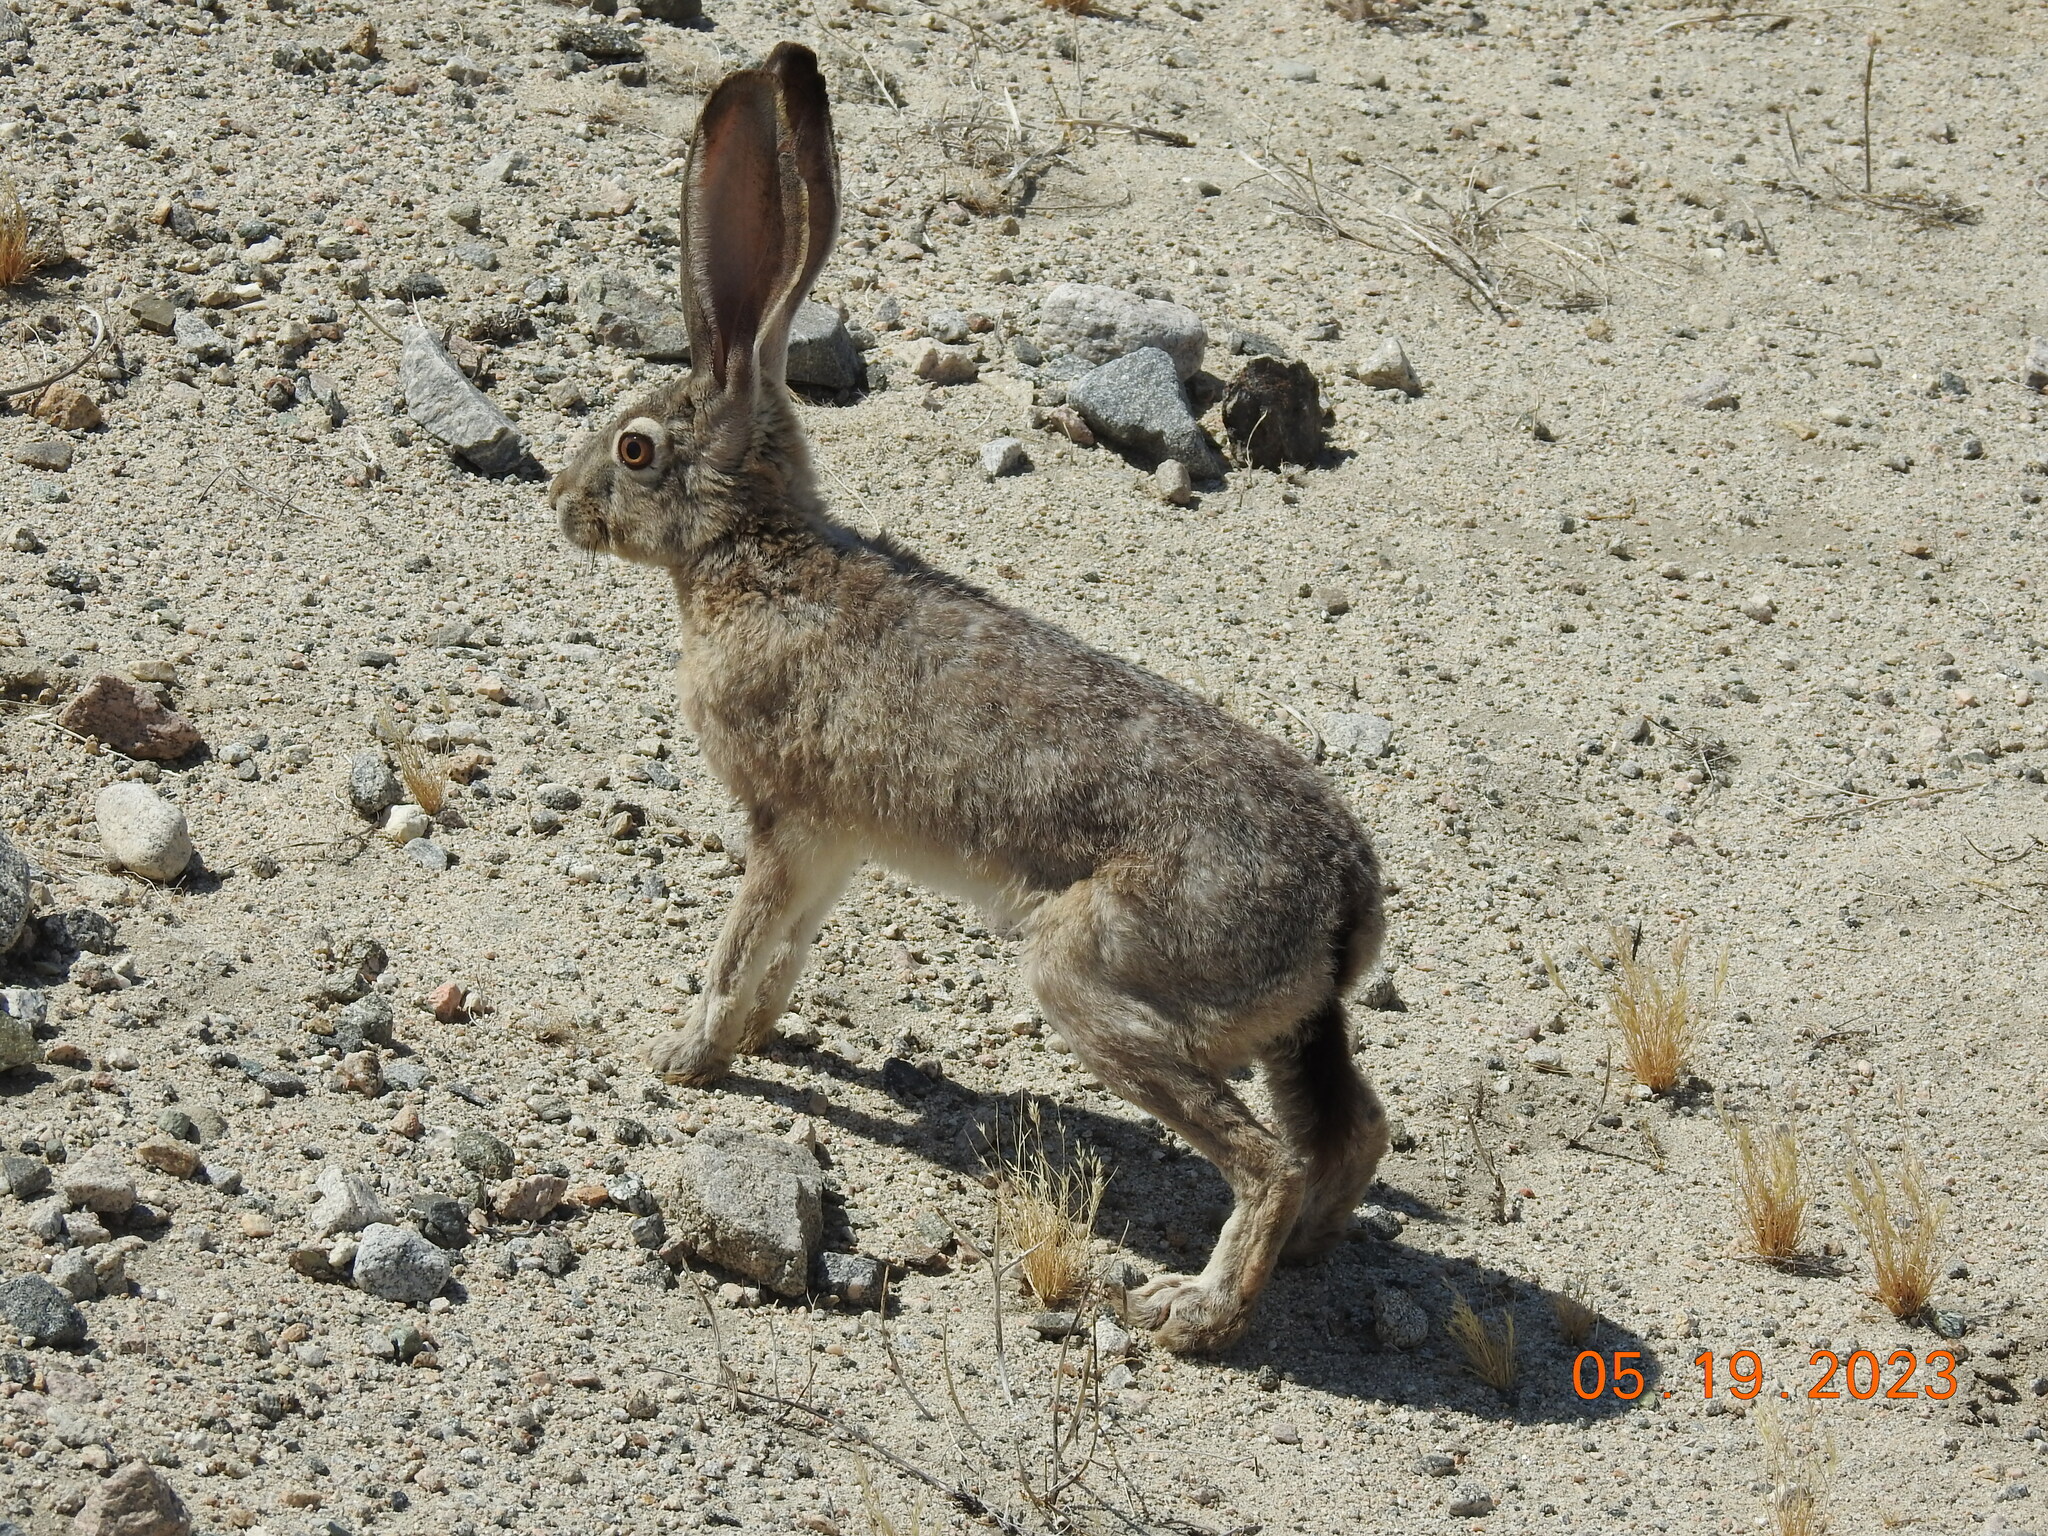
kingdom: Animalia
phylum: Chordata
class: Mammalia
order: Lagomorpha
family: Leporidae
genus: Lepus
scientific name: Lepus californicus
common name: Black-tailed jackrabbit
